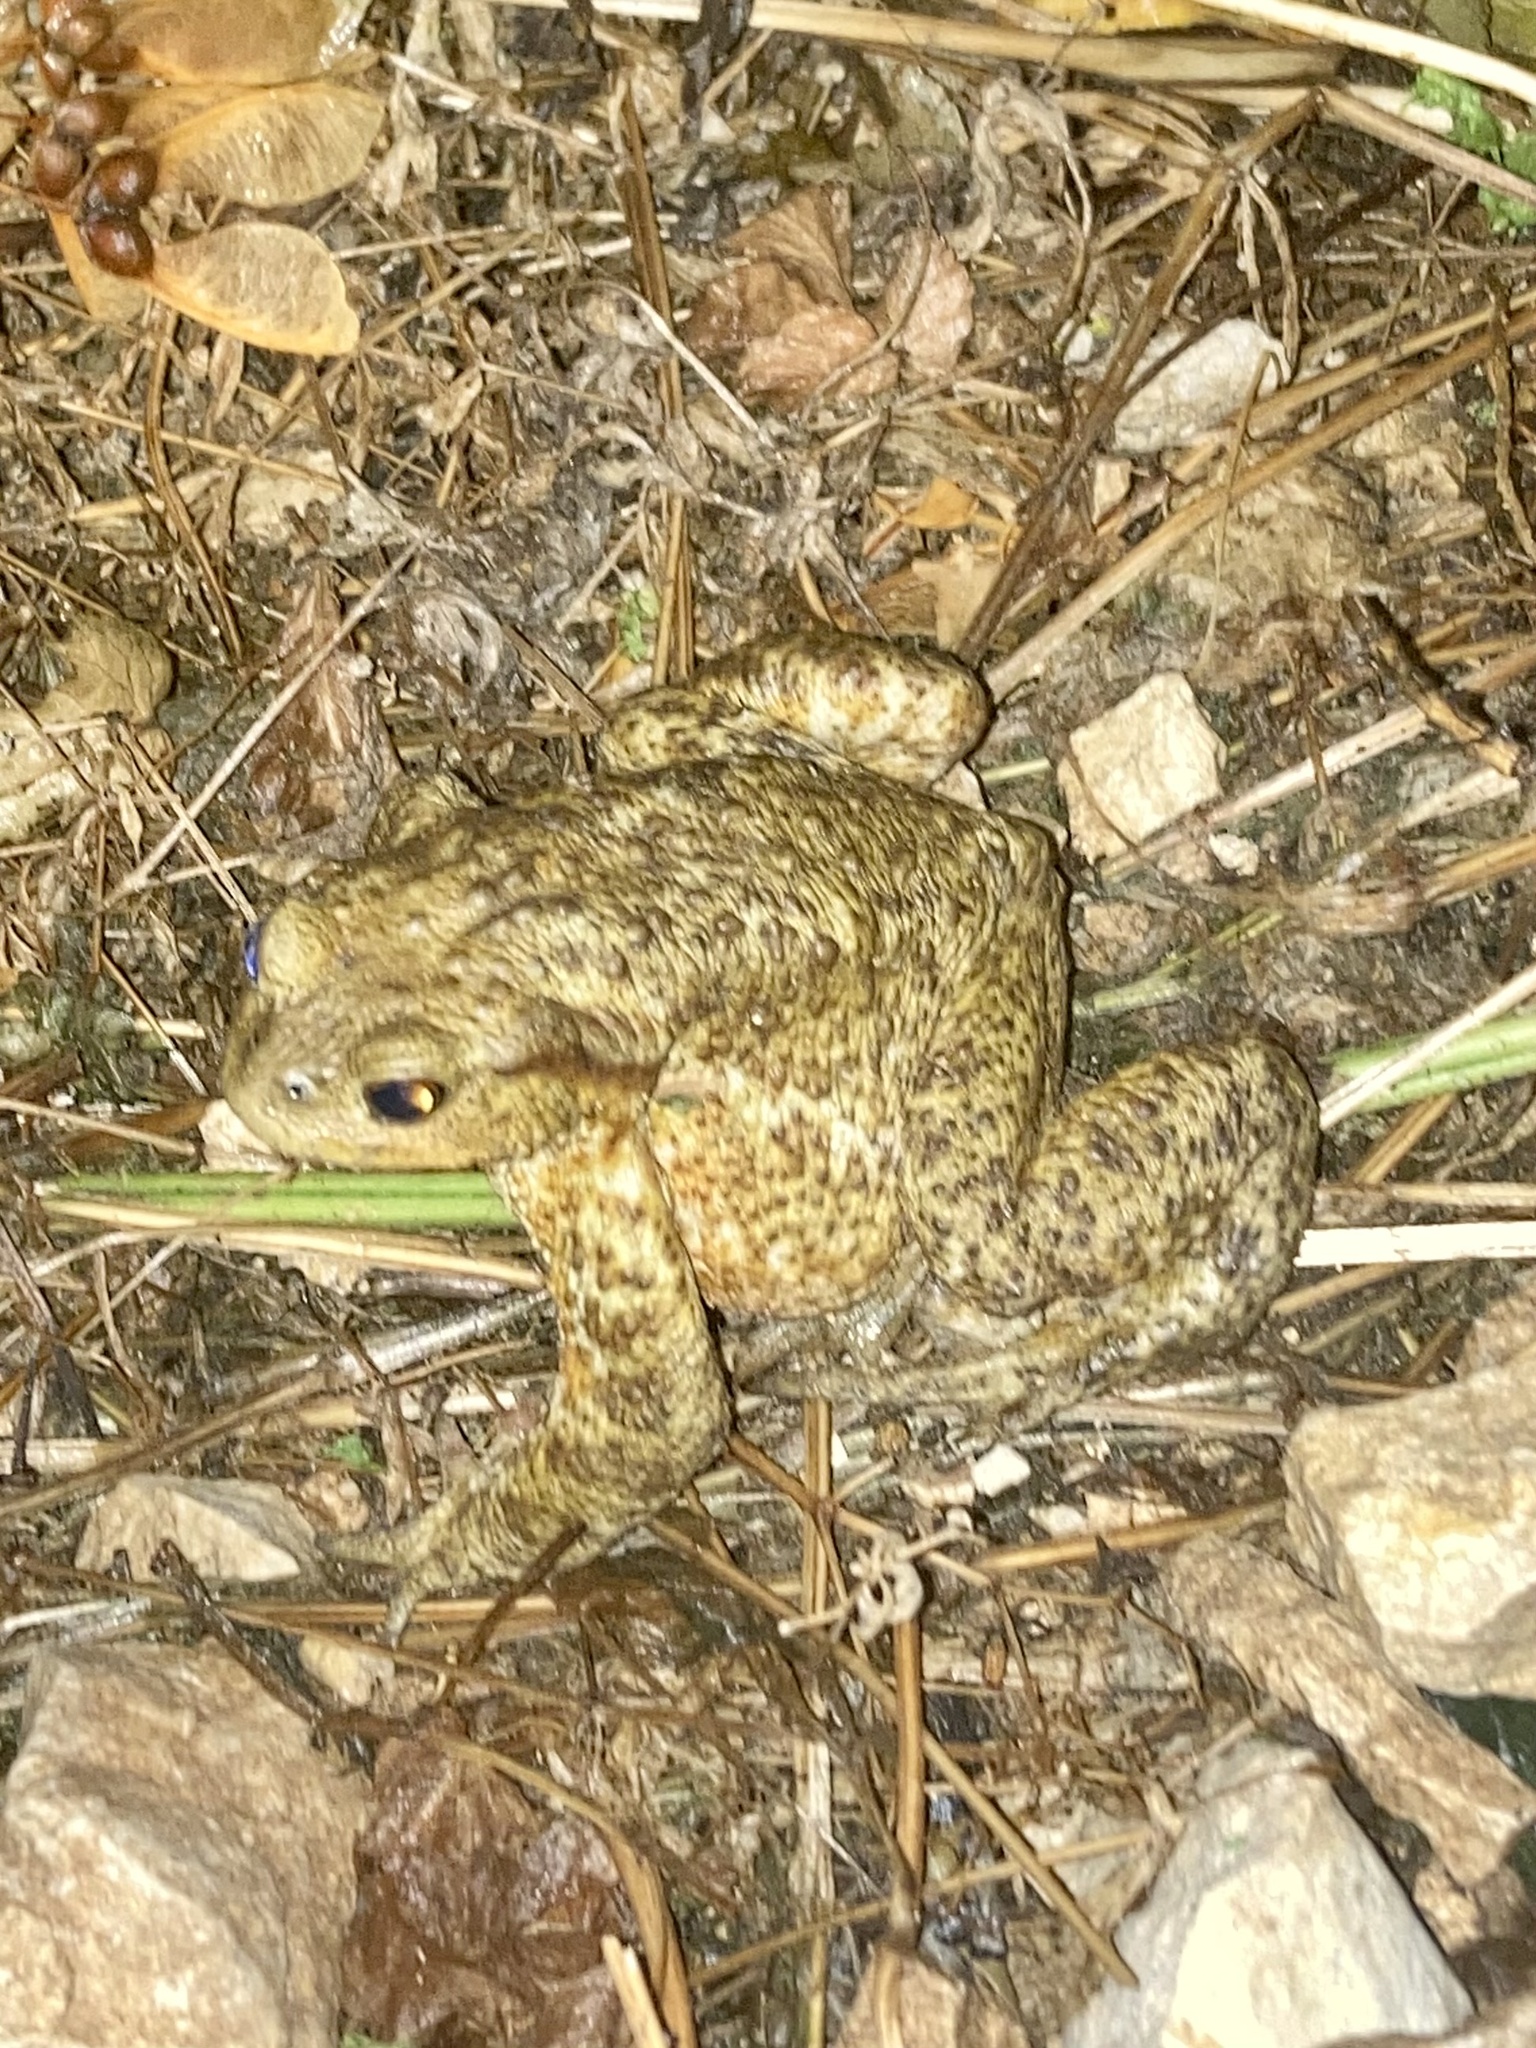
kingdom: Animalia
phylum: Chordata
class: Amphibia
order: Anura
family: Bufonidae
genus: Bufo
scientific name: Bufo bufo
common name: Common toad
